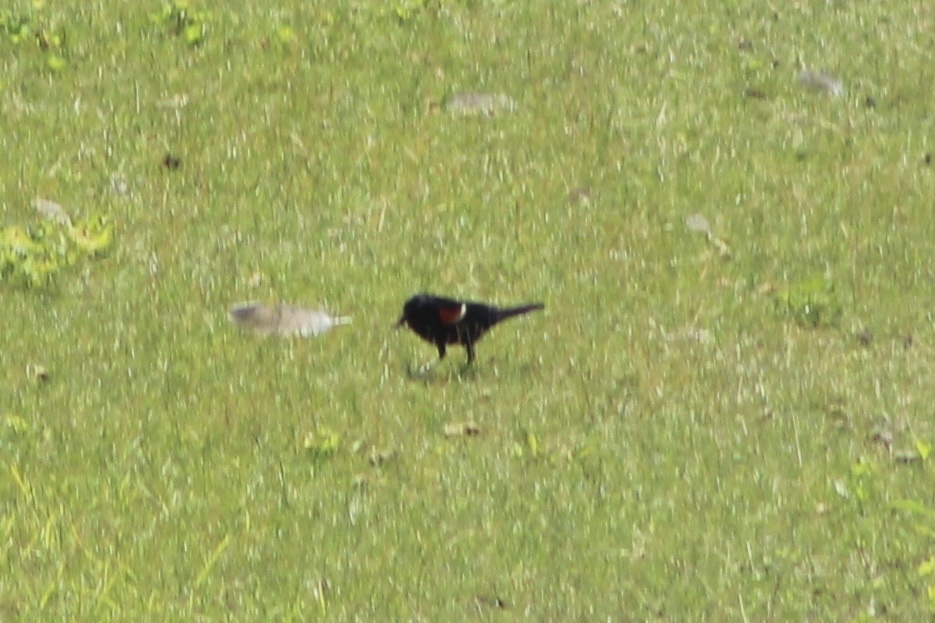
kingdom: Animalia
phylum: Chordata
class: Aves
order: Passeriformes
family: Icteridae
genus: Agelaius
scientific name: Agelaius phoeniceus
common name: Red-winged blackbird
